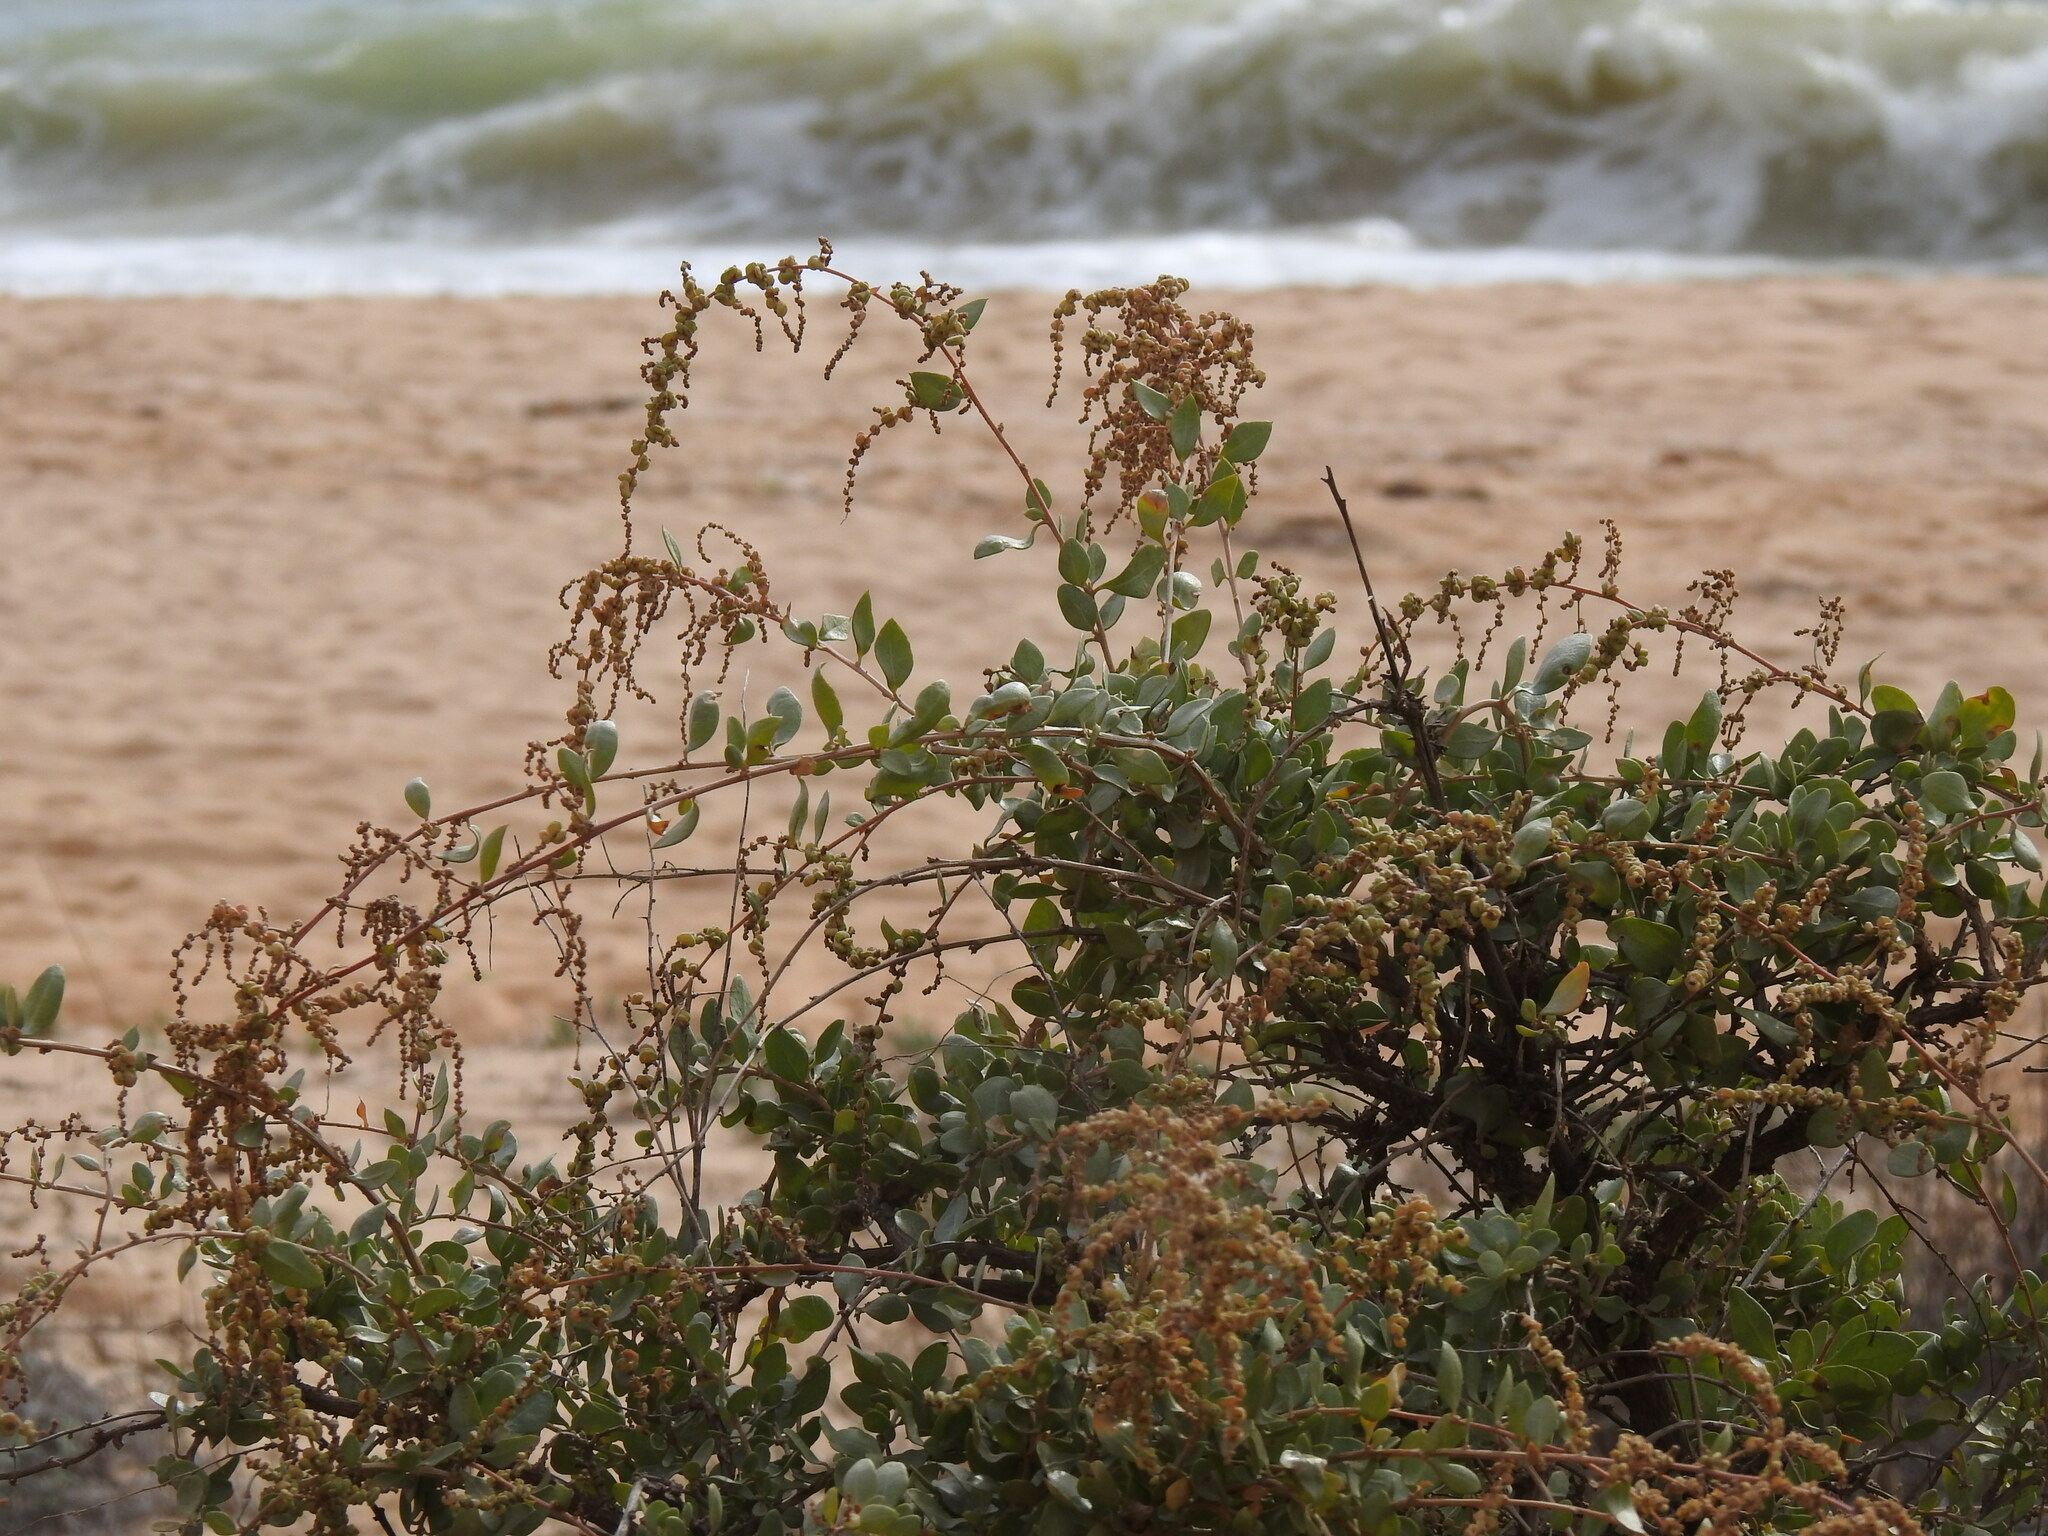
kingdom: Plantae
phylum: Tracheophyta
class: Magnoliopsida
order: Caryophyllales
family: Amaranthaceae
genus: Atriplex
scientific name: Atriplex halimus
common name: Shrubby orache
